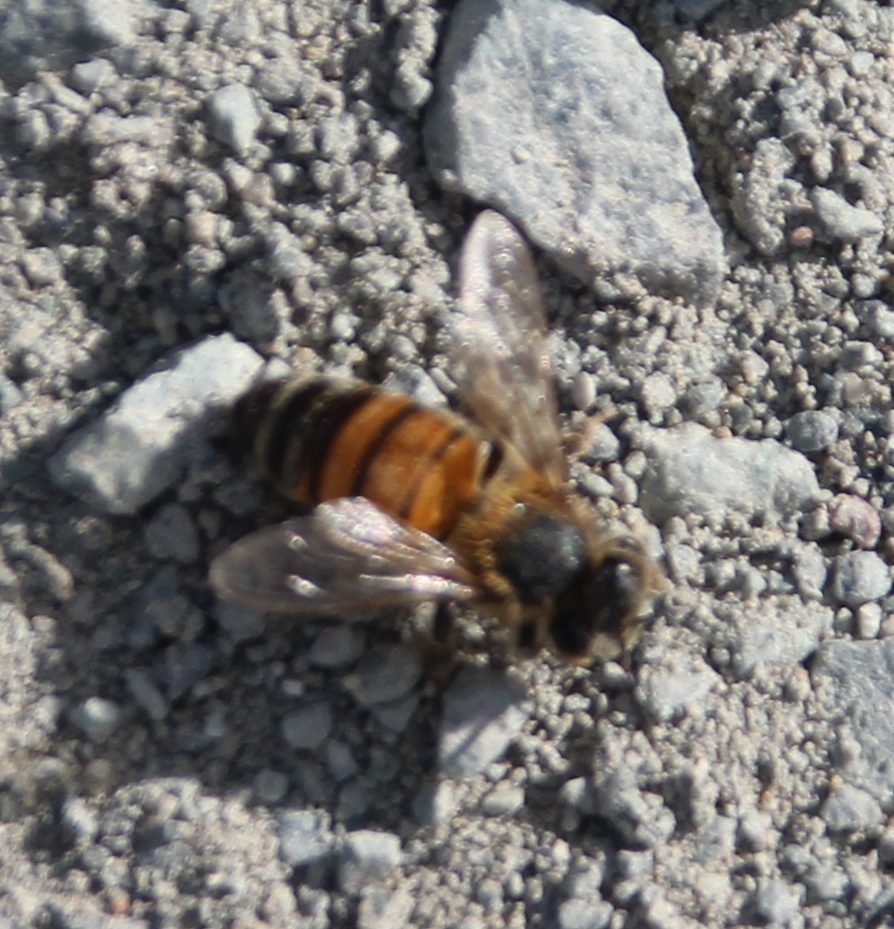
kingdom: Animalia
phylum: Arthropoda
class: Insecta
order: Hymenoptera
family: Apidae
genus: Apis
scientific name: Apis mellifera
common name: Honey bee
